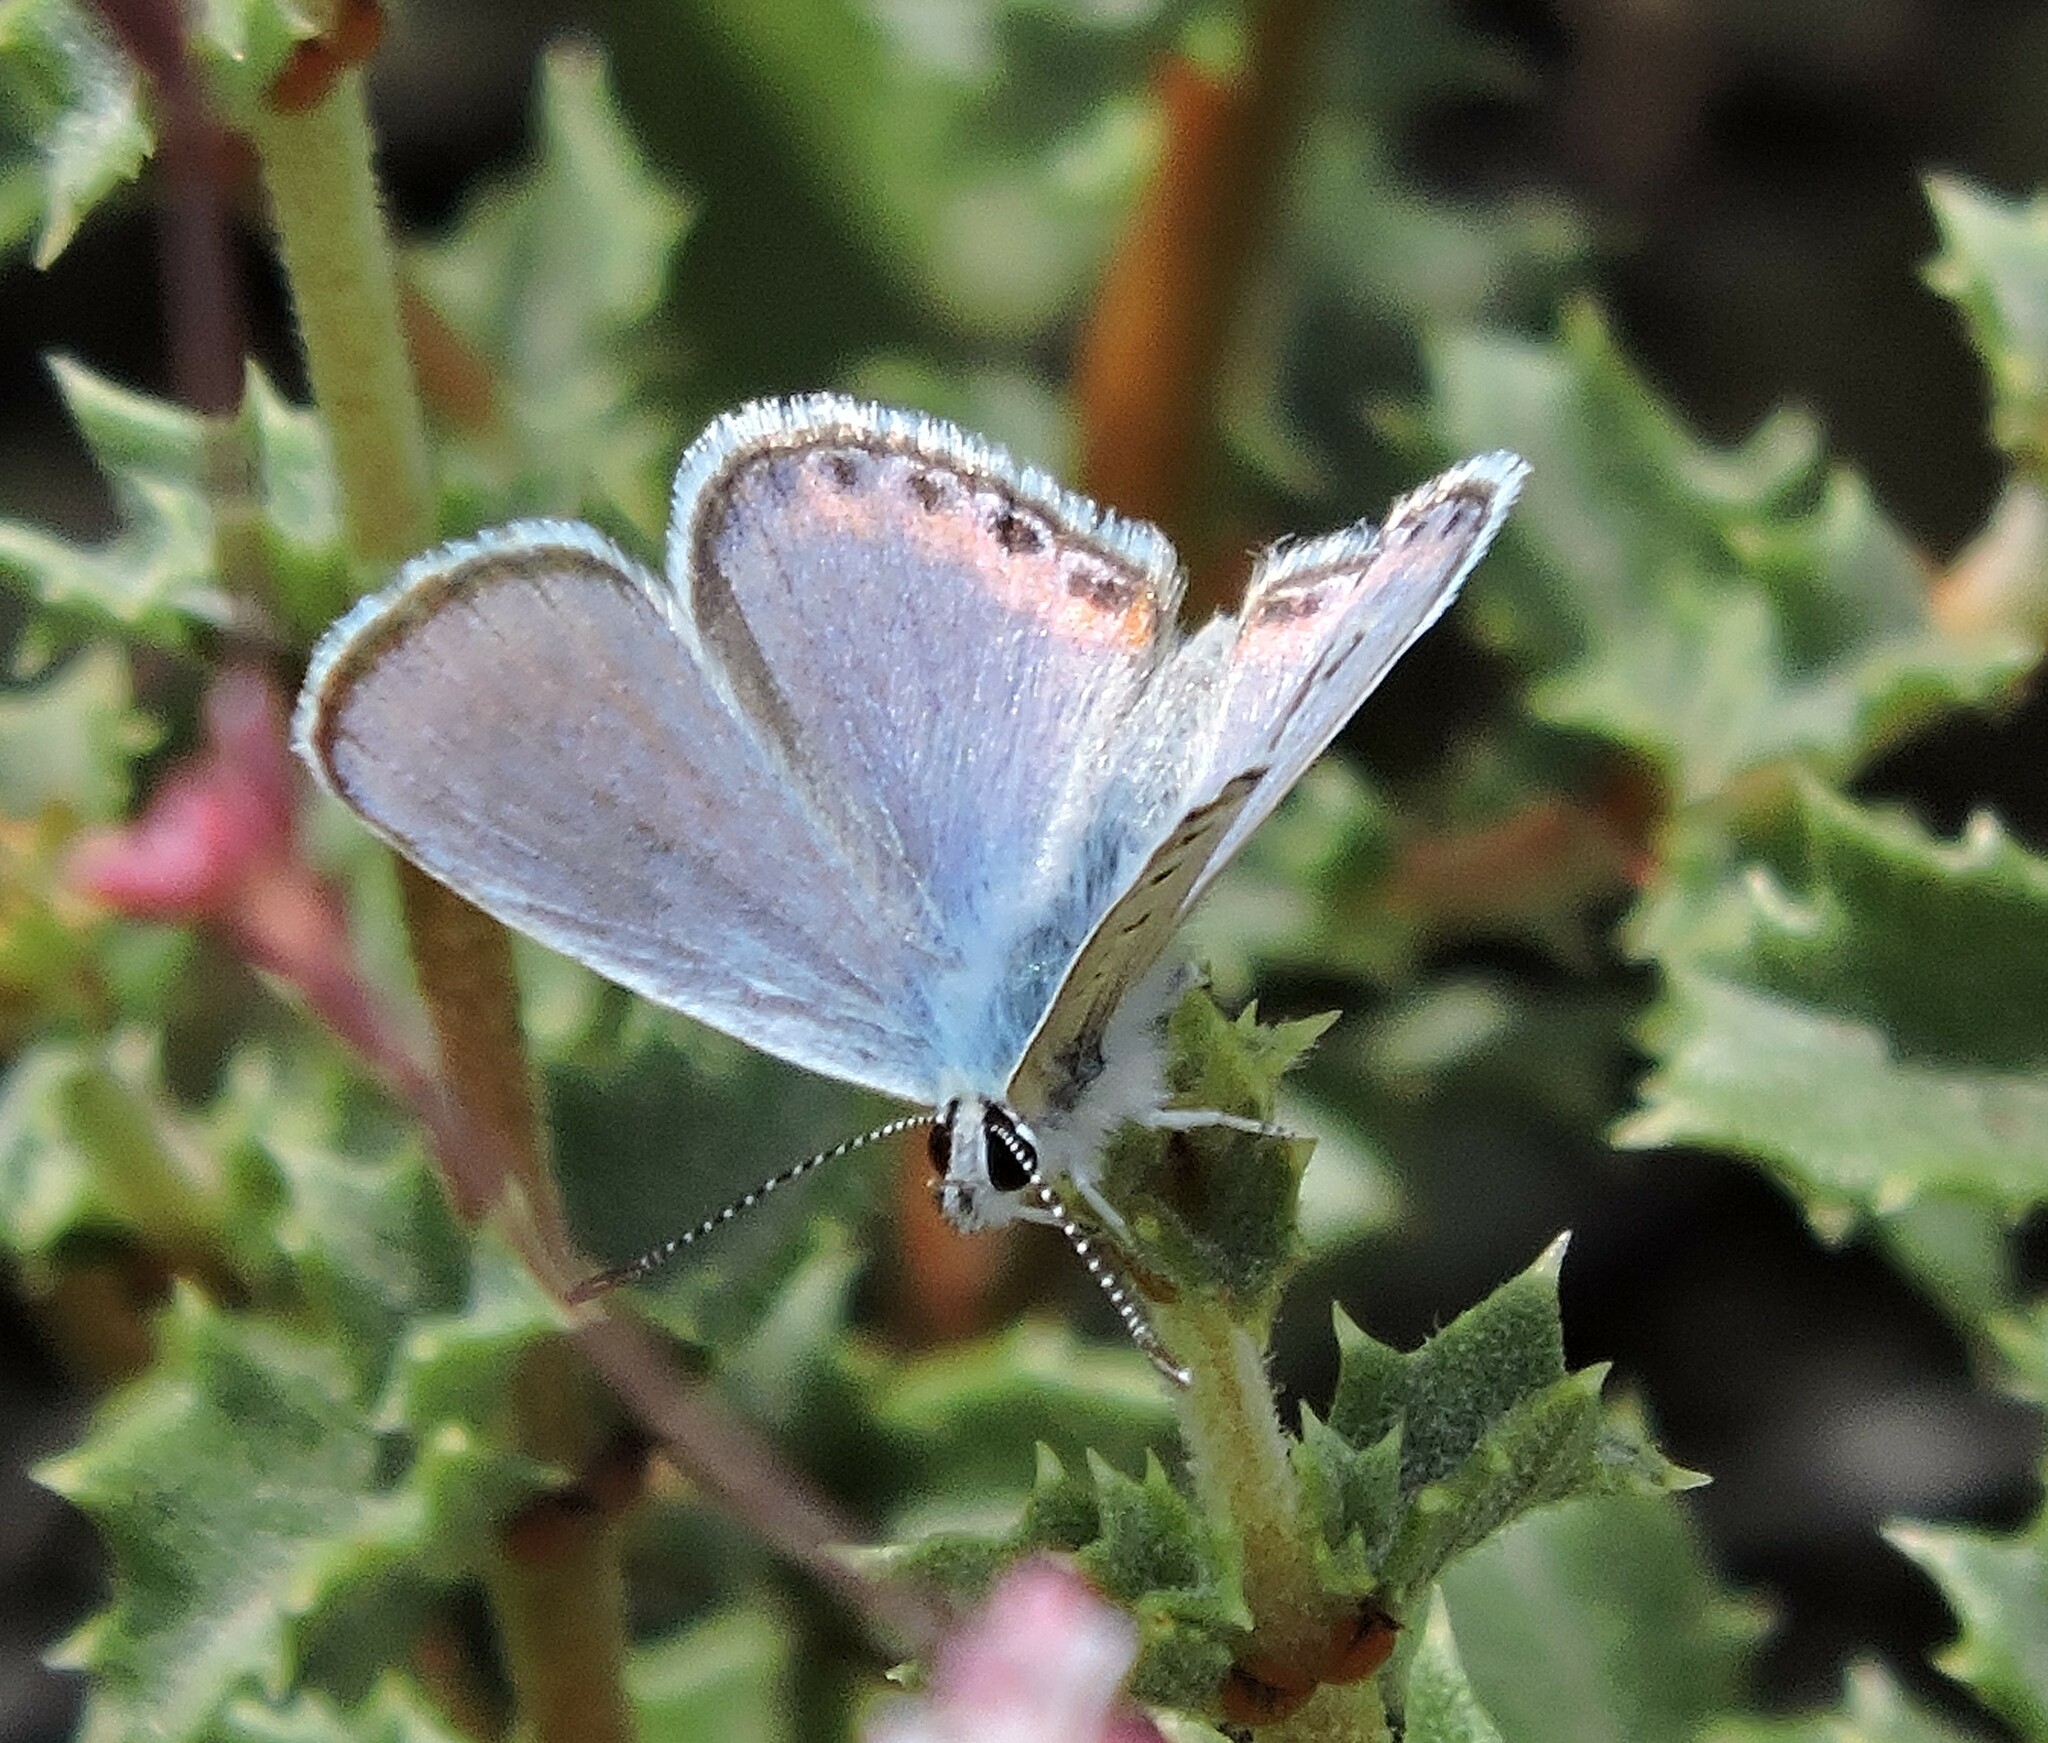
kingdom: Animalia
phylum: Arthropoda
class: Insecta
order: Lepidoptera
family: Lycaenidae
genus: Icaricia
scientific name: Icaricia acmon
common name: Acmon blue
